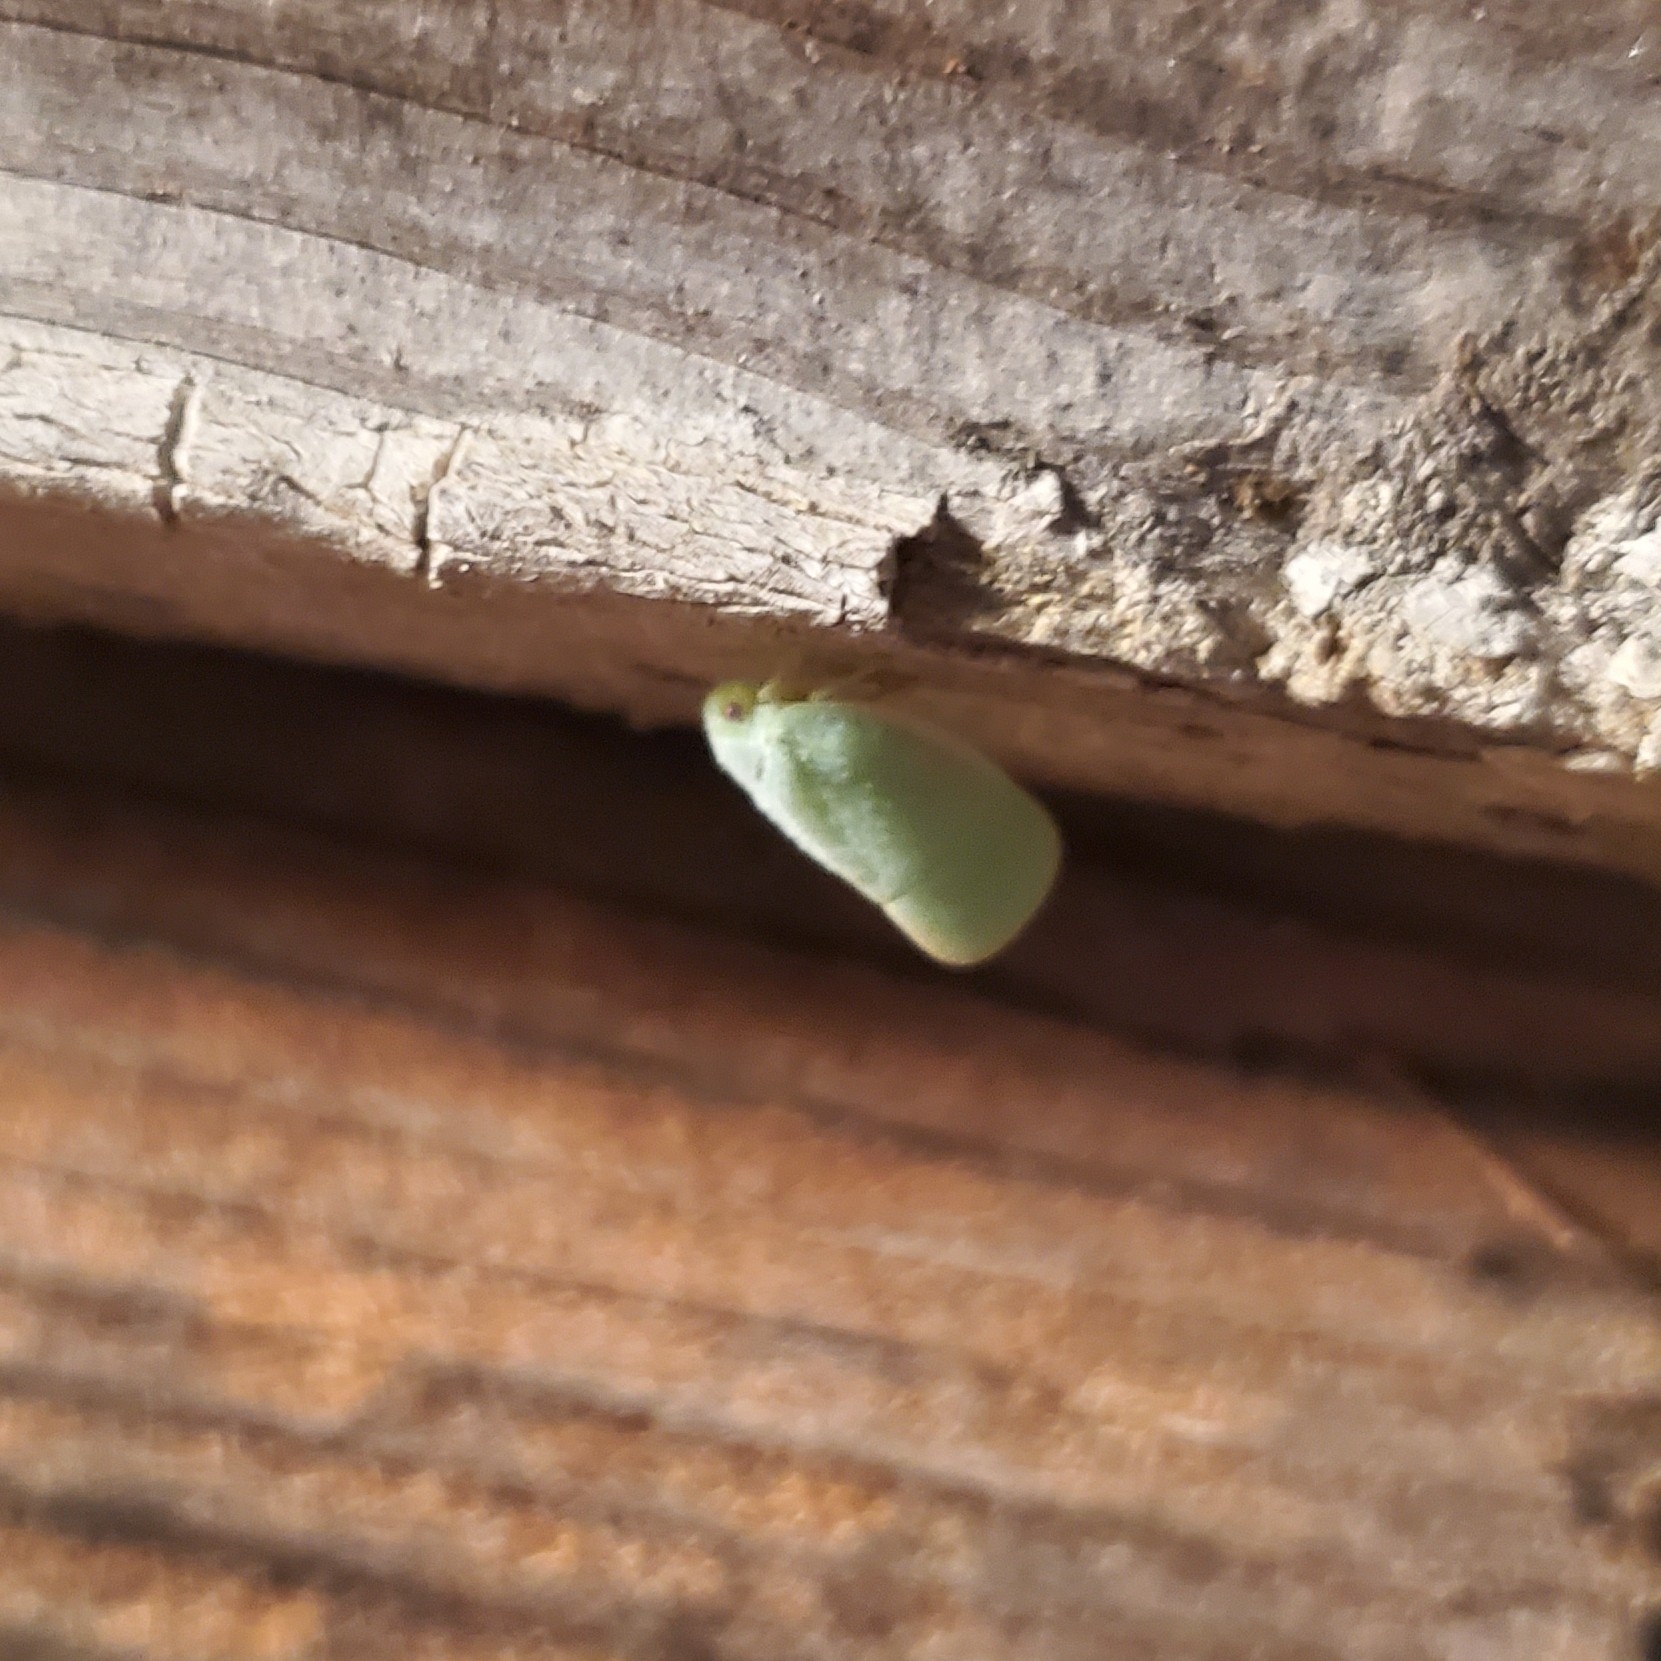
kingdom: Animalia
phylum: Arthropoda
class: Insecta
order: Hemiptera
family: Flatidae
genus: Ormenoides
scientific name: Ormenoides venusta
